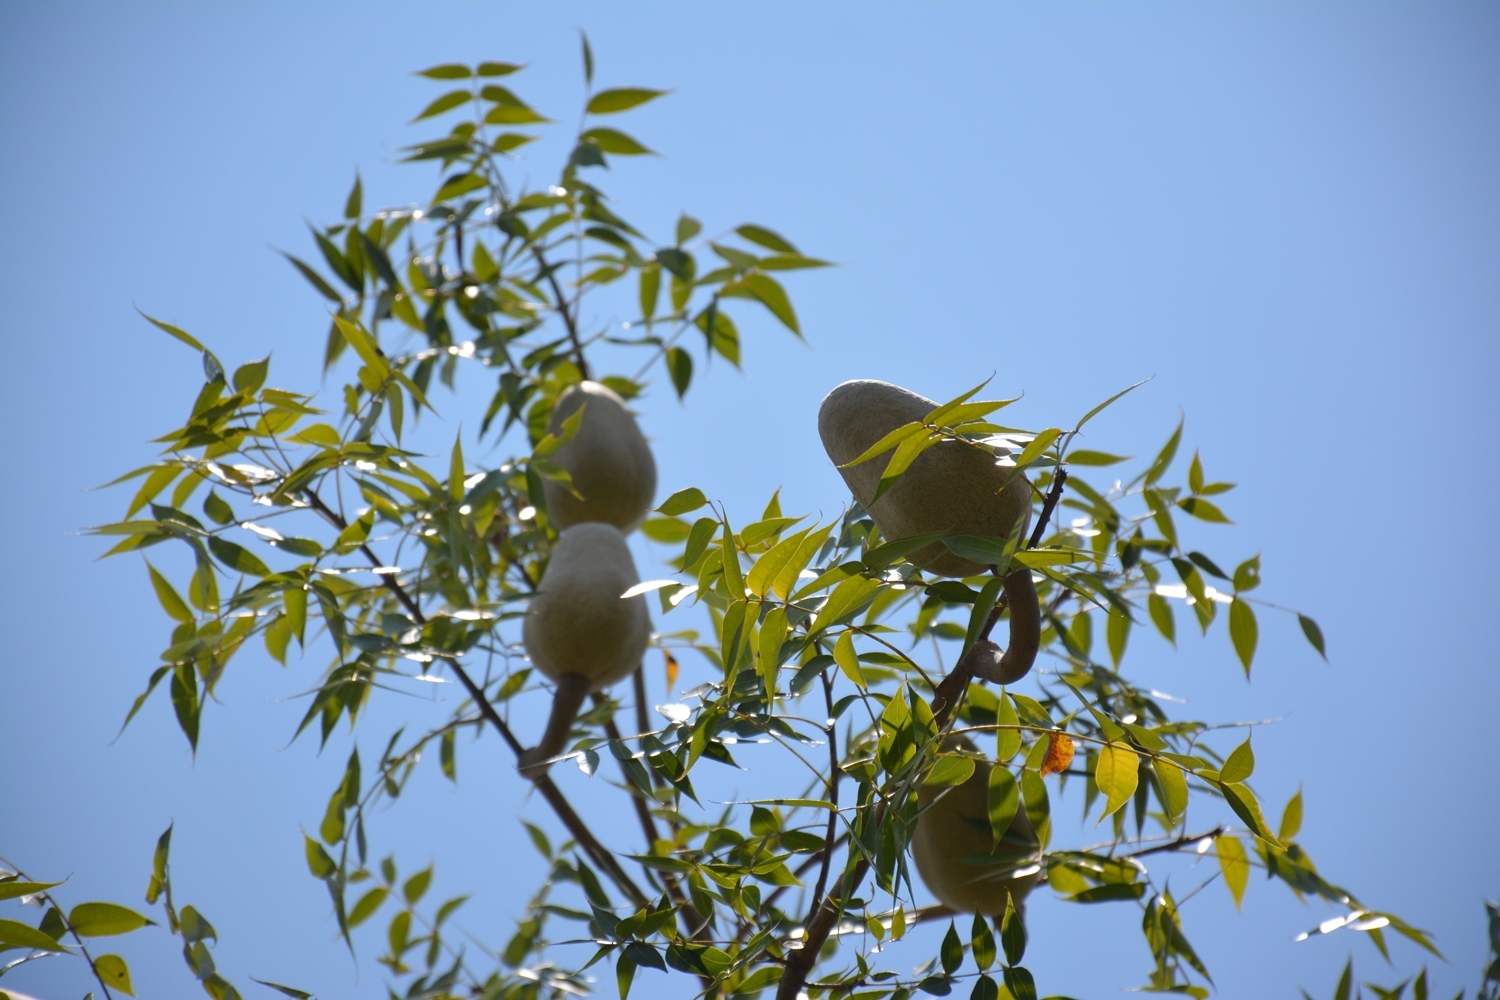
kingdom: Plantae
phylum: Tracheophyta
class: Magnoliopsida
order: Sapindales
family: Meliaceae
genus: Swietenia
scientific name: Swietenia humilis
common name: Pacific coast mahogany
